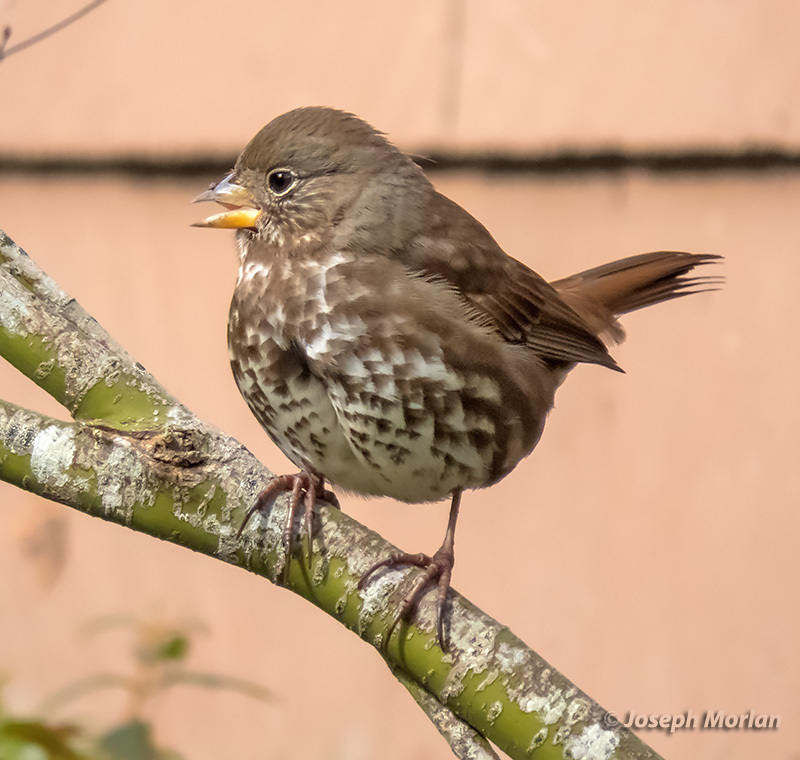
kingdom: Animalia
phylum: Chordata
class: Aves
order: Passeriformes
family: Passerellidae
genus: Passerella
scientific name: Passerella iliaca
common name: Fox sparrow
